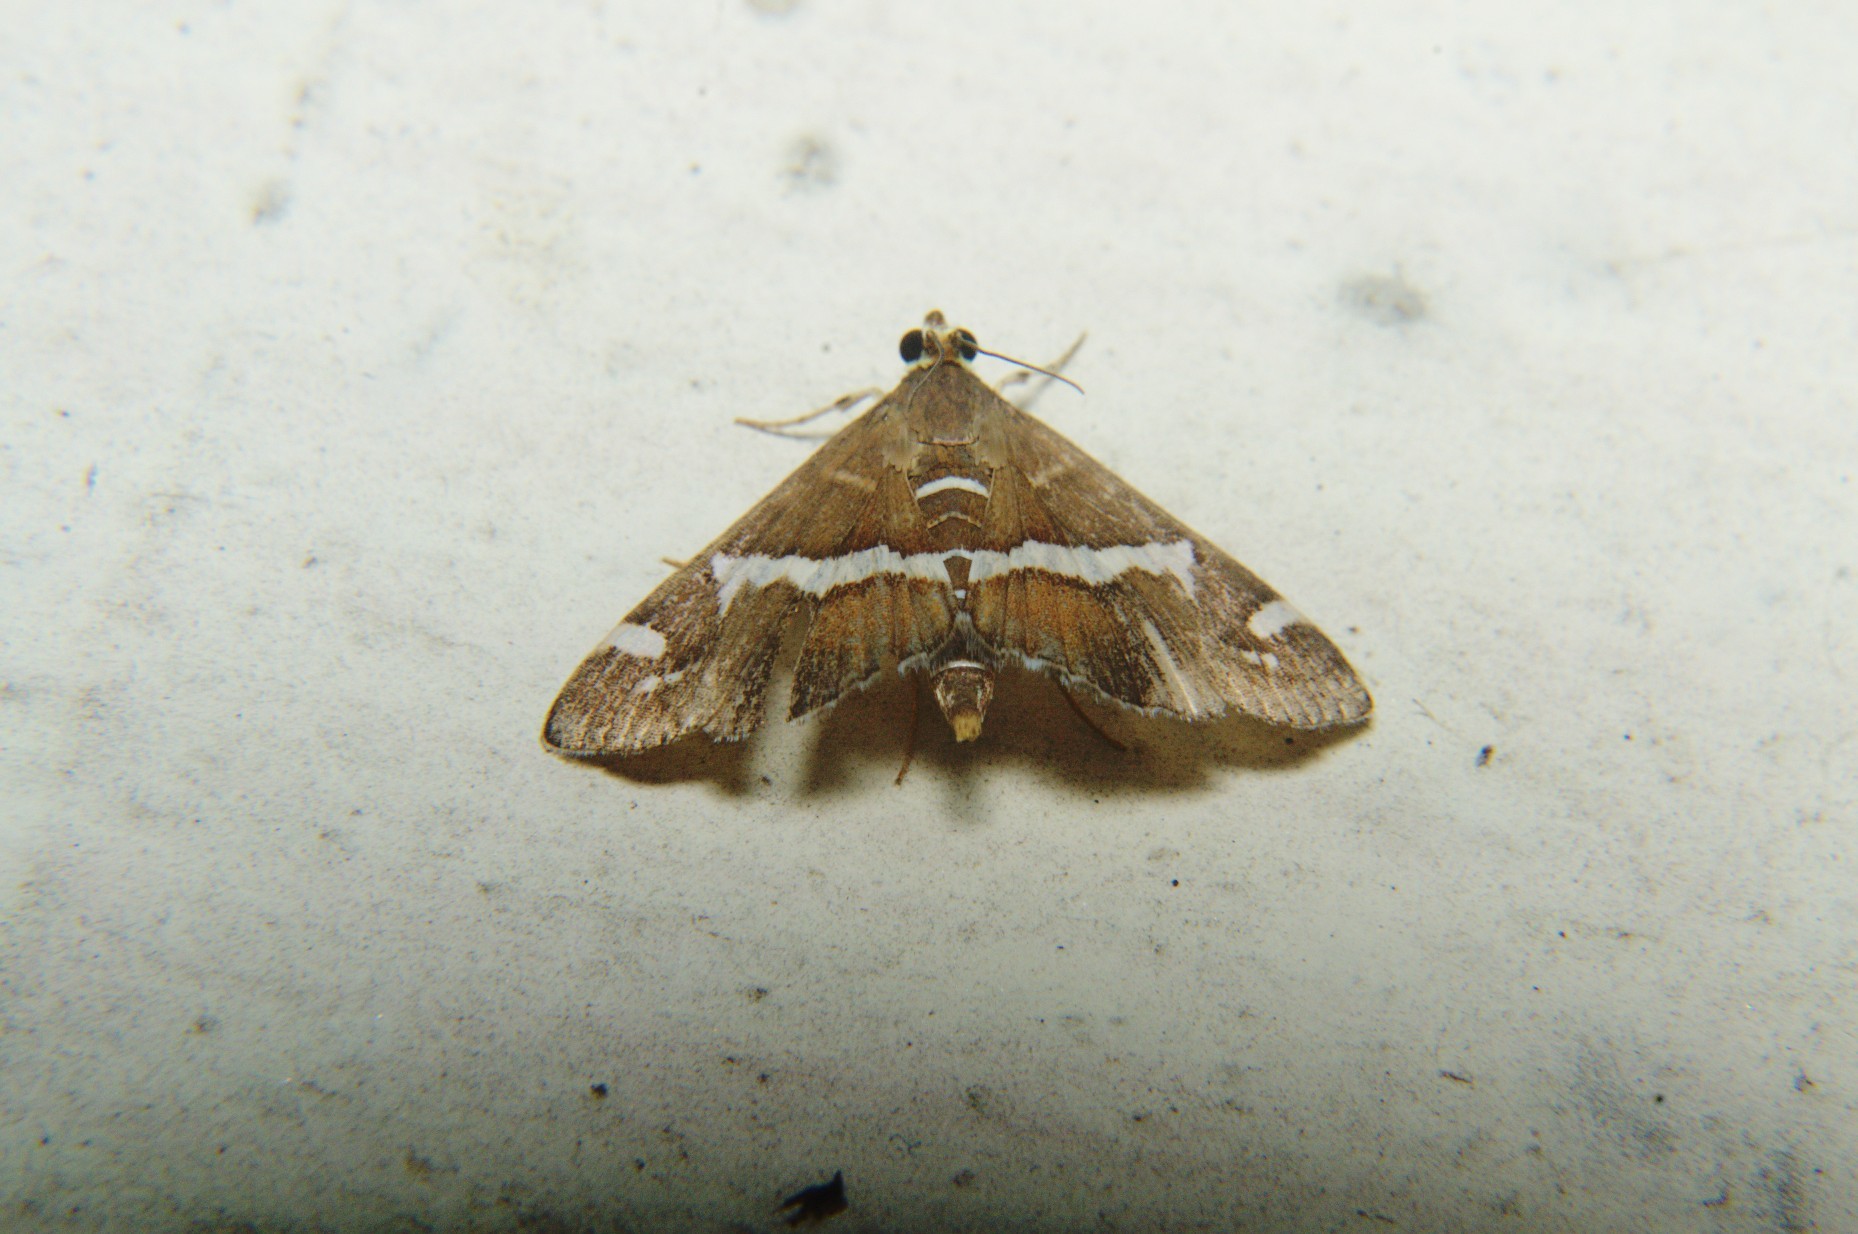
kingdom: Animalia
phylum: Arthropoda
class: Insecta
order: Lepidoptera
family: Crambidae
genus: Spoladea
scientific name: Spoladea recurvalis
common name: Beet webworm moth
